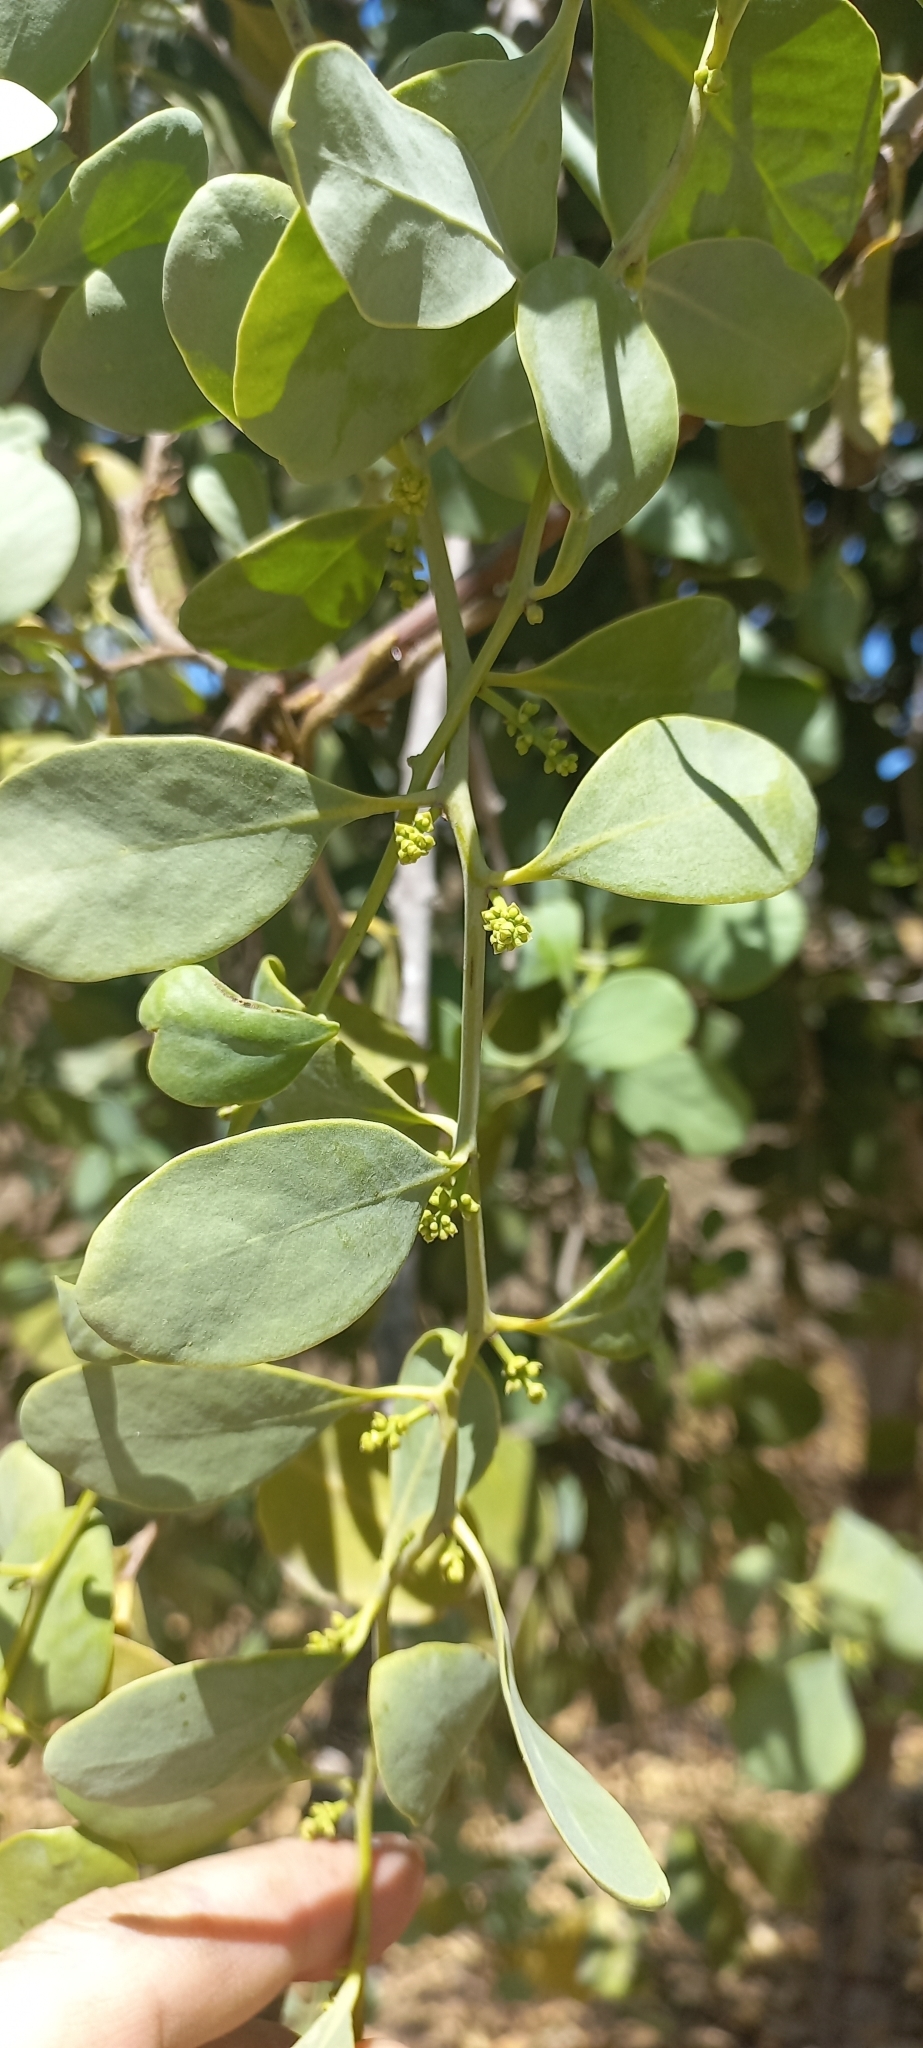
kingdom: Plantae
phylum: Tracheophyta
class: Magnoliopsida
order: Santalales
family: Loranthaceae
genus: Struthanthus
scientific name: Struthanthus interruptus
